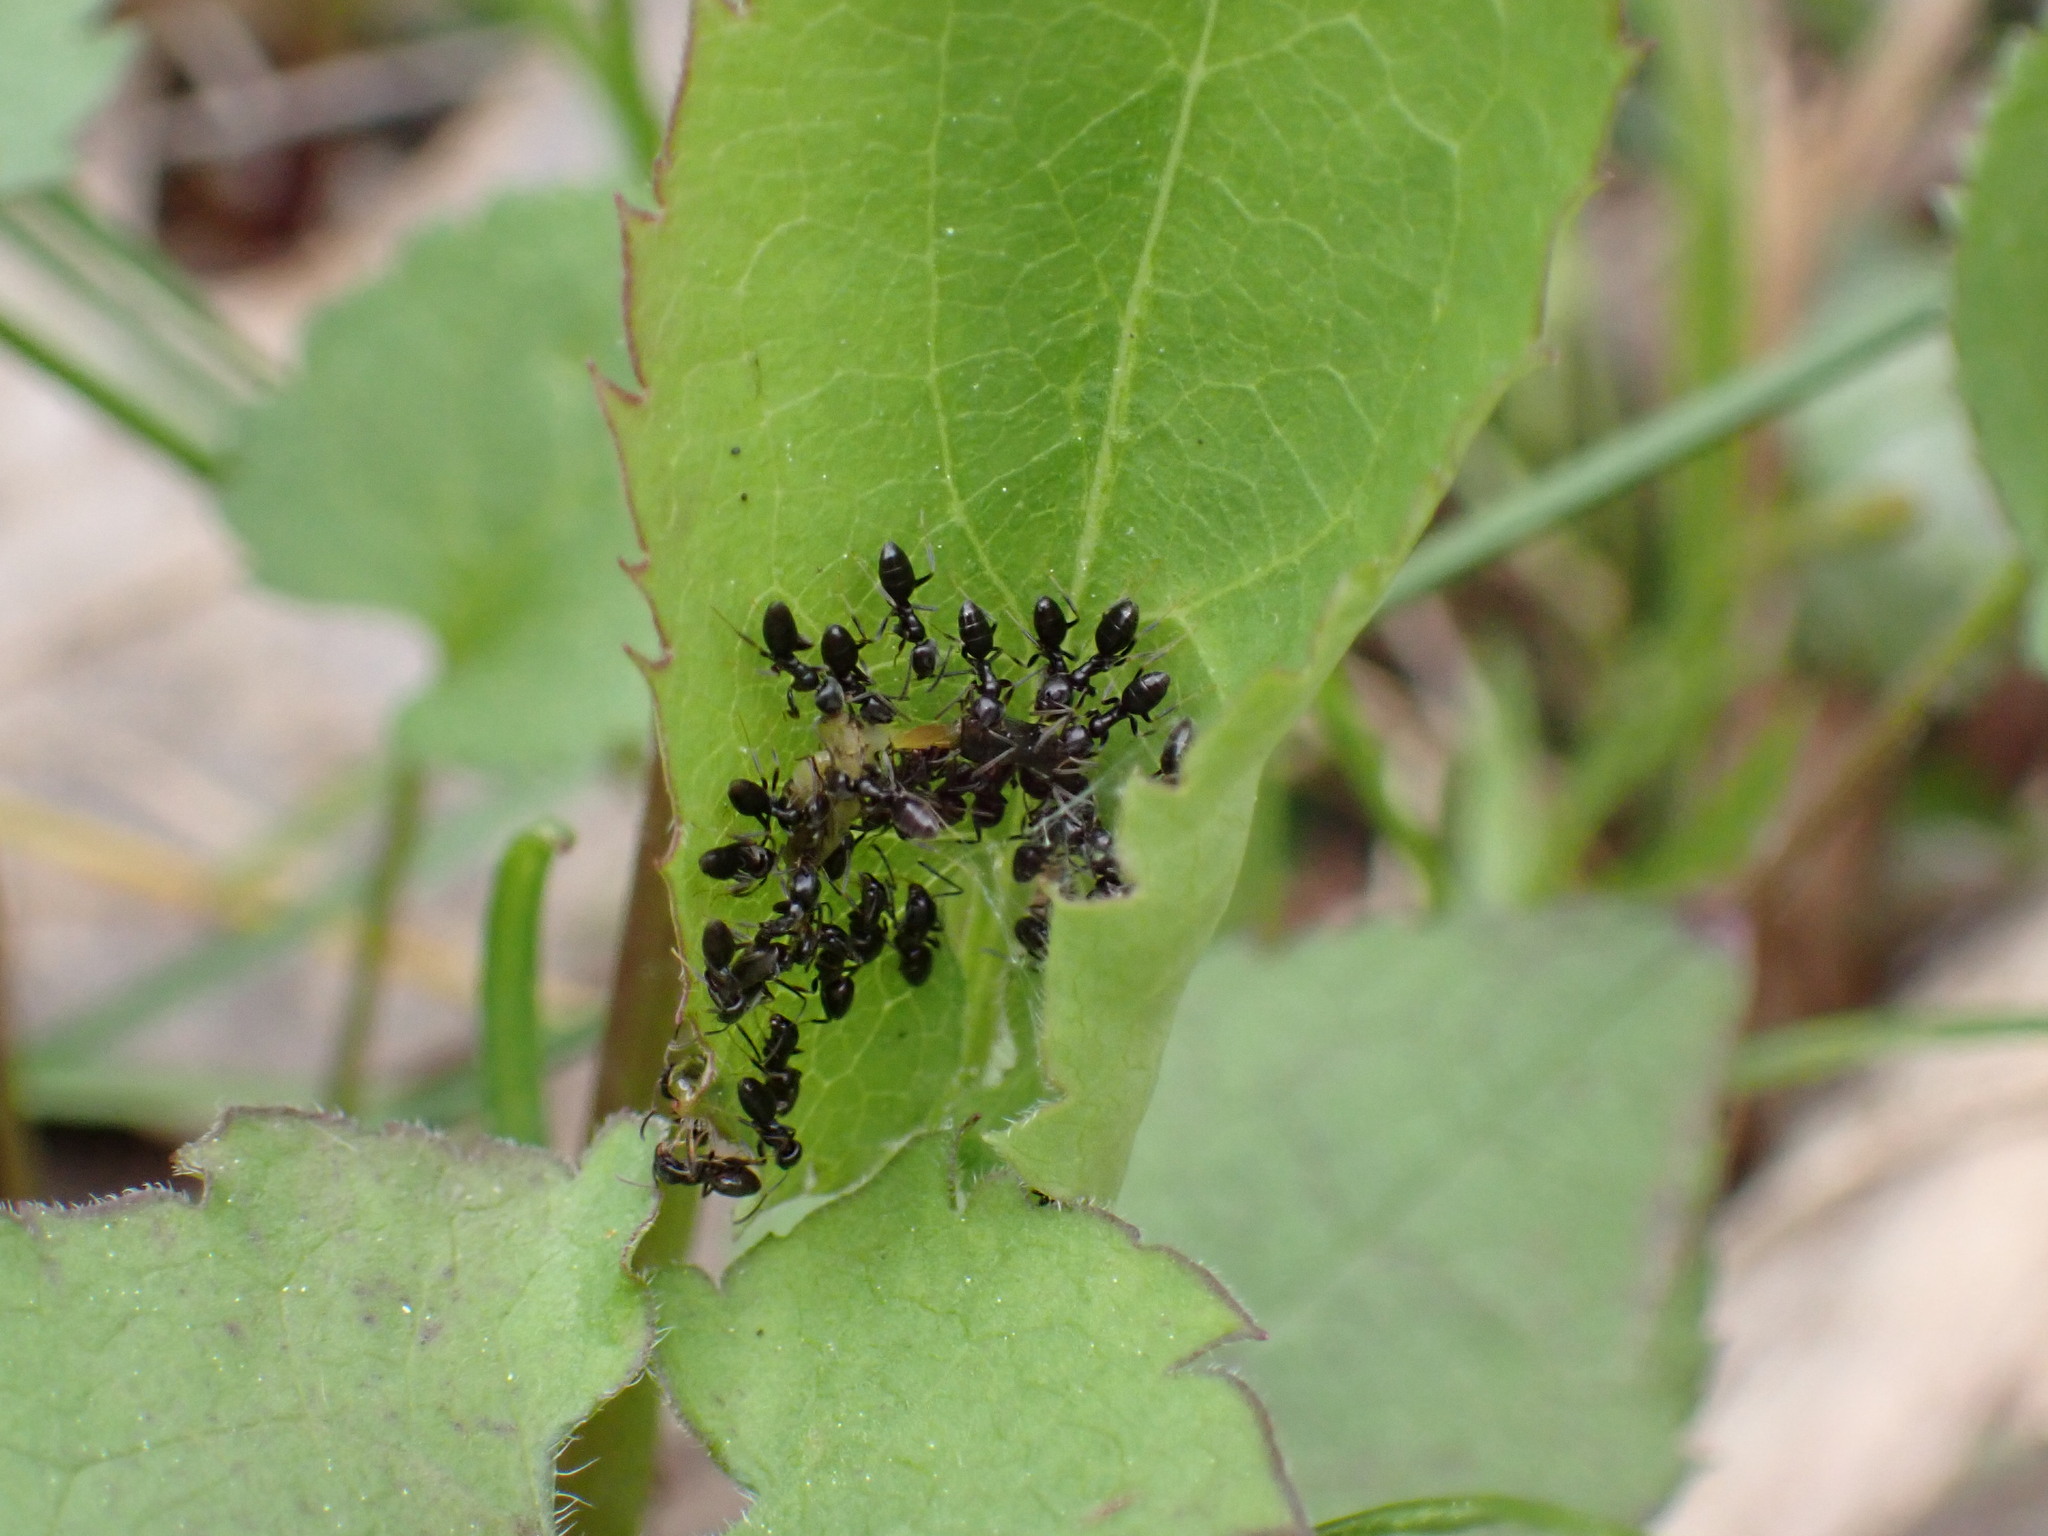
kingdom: Animalia
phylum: Arthropoda
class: Insecta
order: Hymenoptera
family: Formicidae
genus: Tapinoma
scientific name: Tapinoma sessile
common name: Odorous house ant
